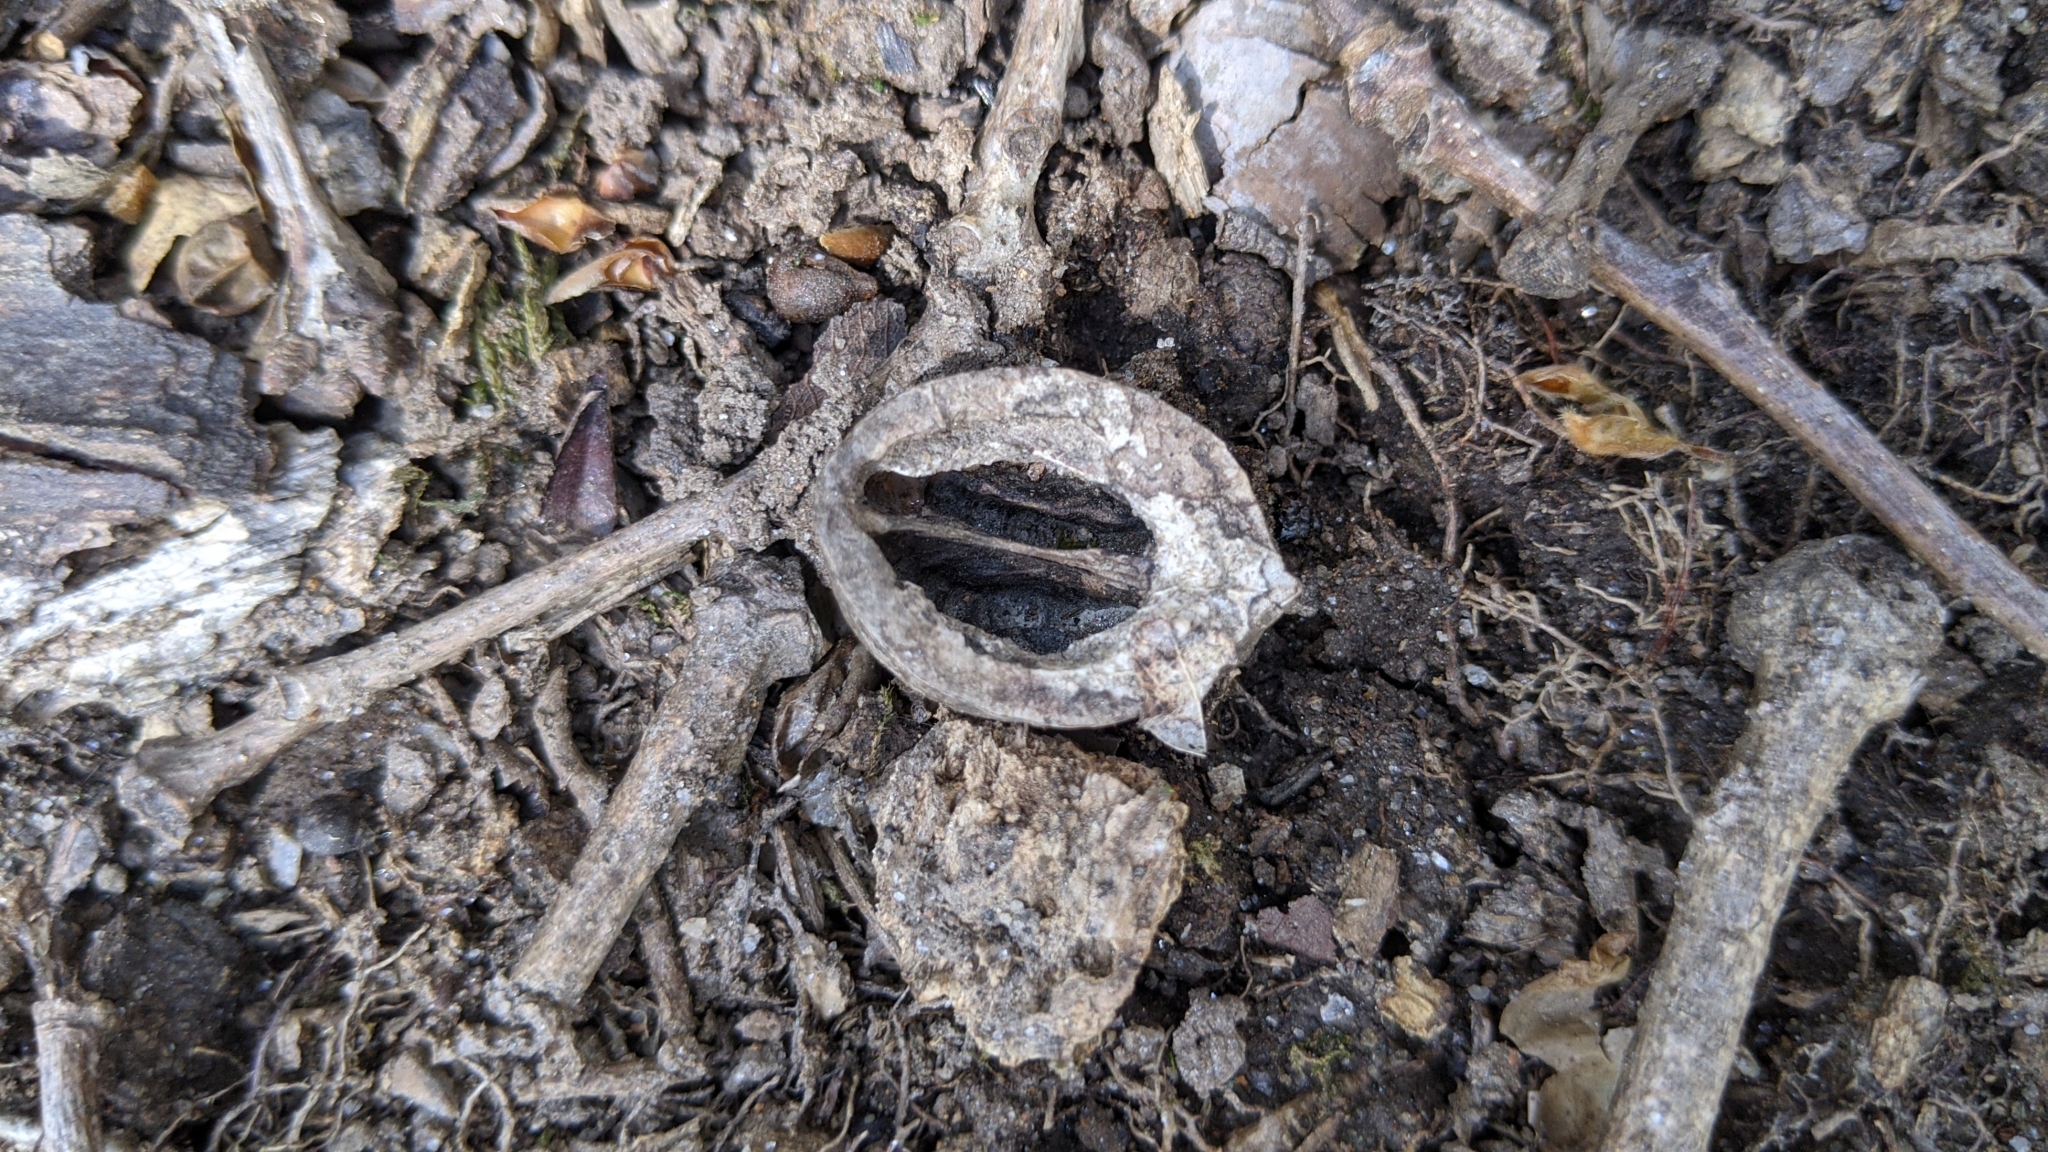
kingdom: Plantae
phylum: Tracheophyta
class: Magnoliopsida
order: Fagales
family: Juglandaceae
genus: Juglans
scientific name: Juglans cinerea
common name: Butternut
